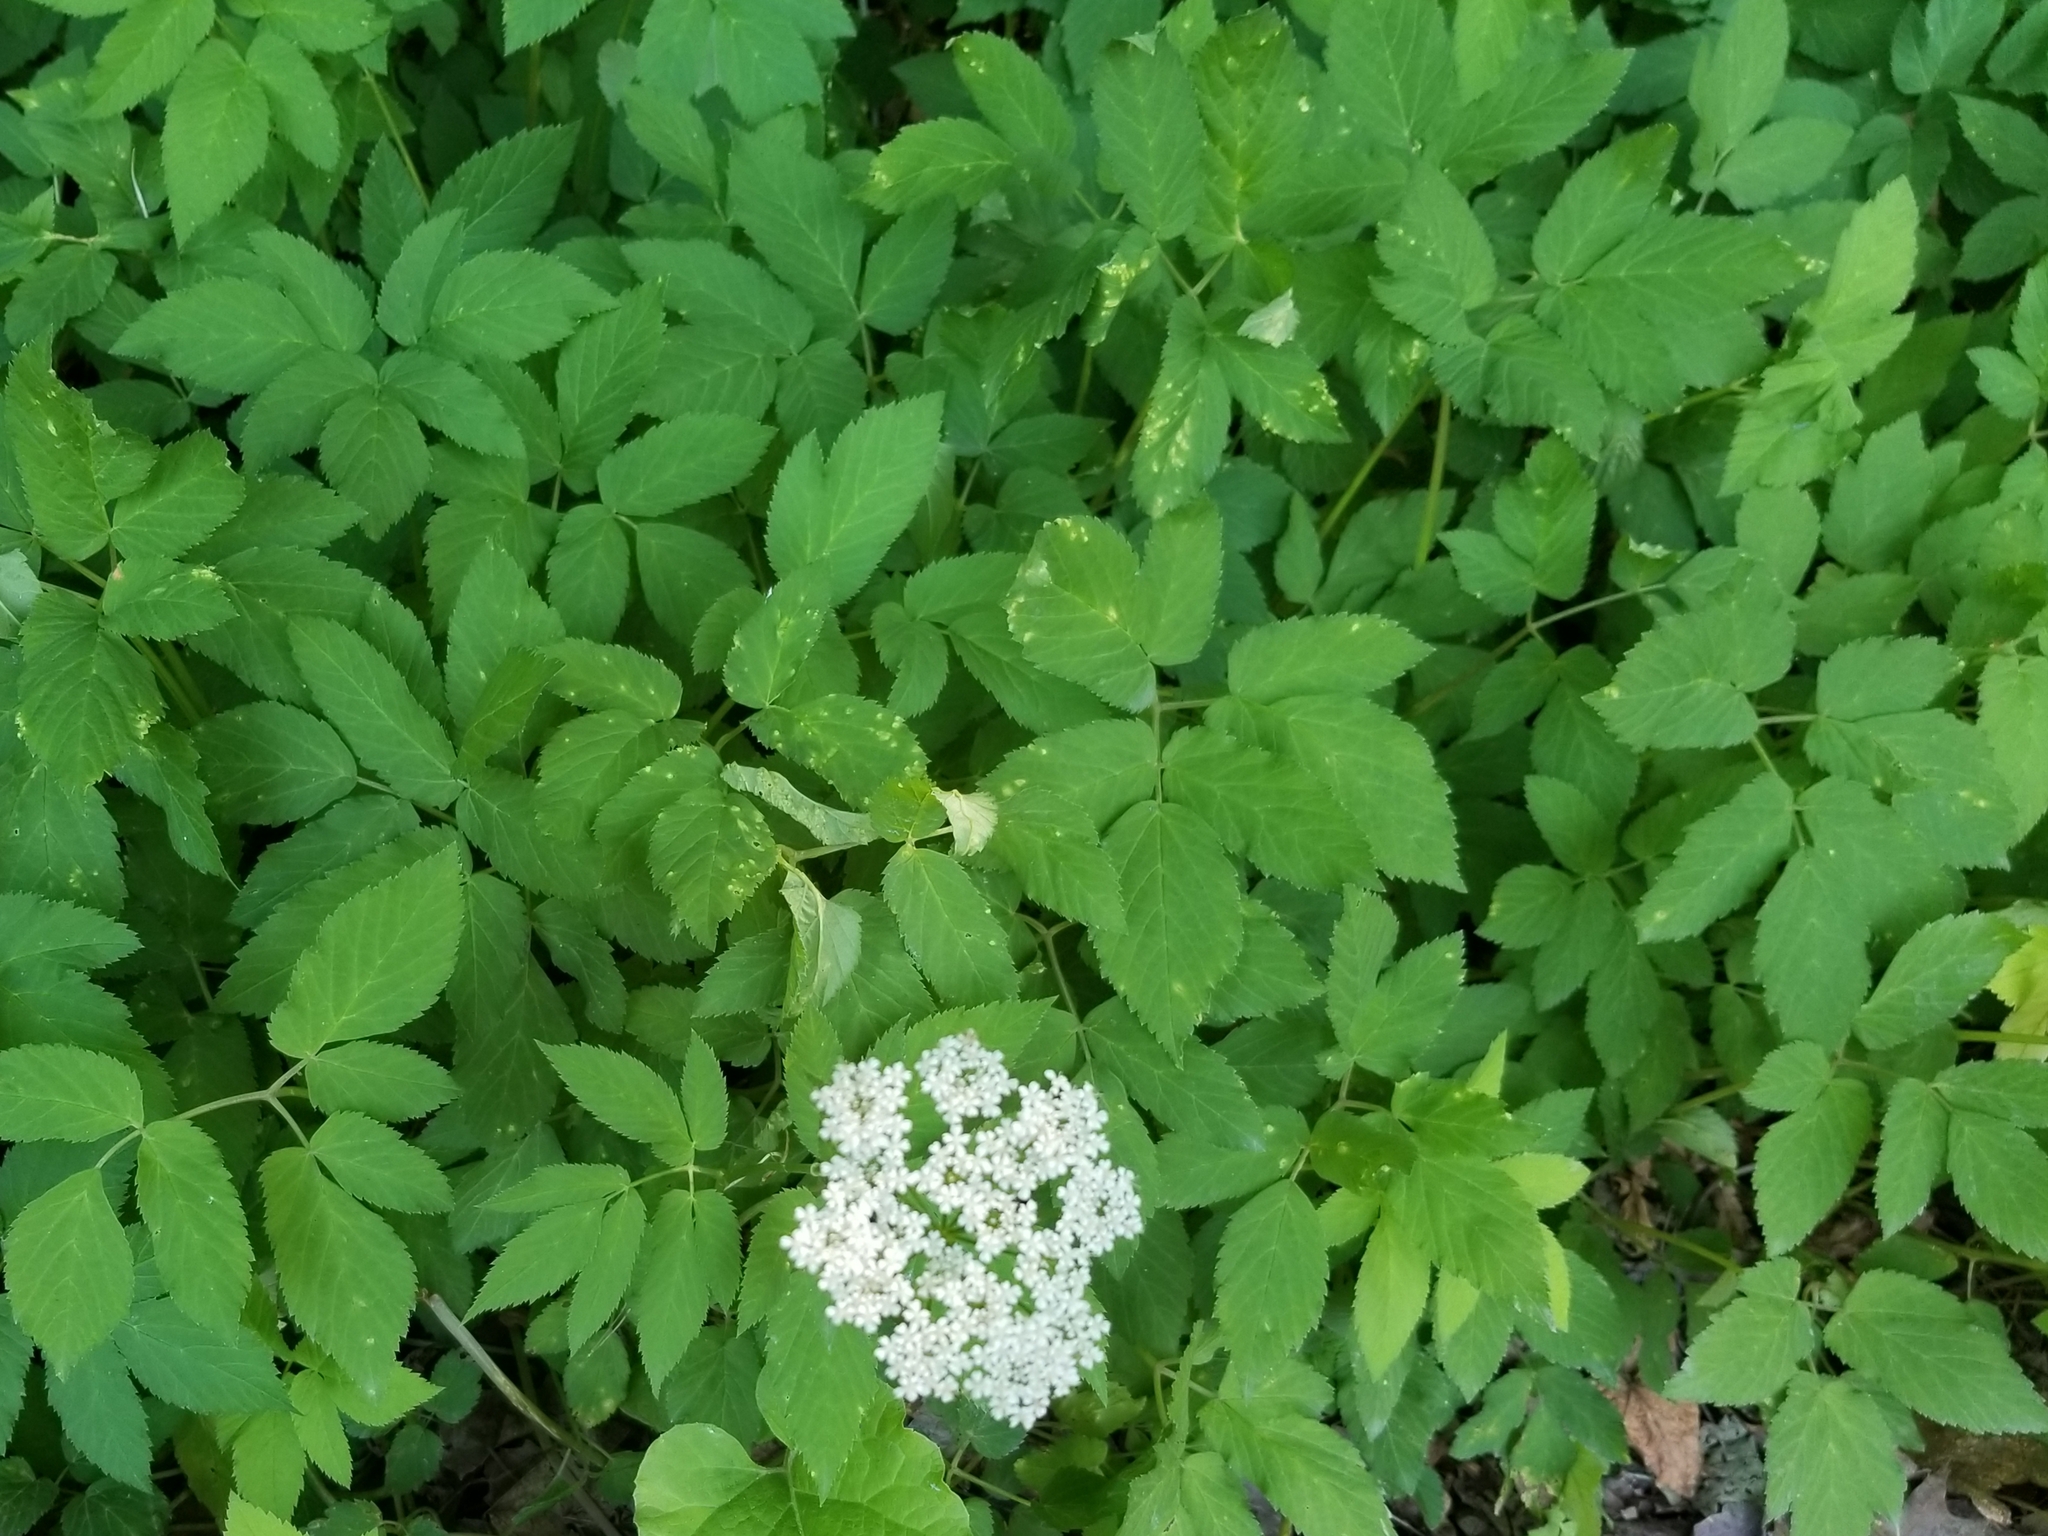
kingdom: Plantae
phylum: Tracheophyta
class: Magnoliopsida
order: Apiales
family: Apiaceae
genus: Aegopodium
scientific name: Aegopodium podagraria
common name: Ground-elder
